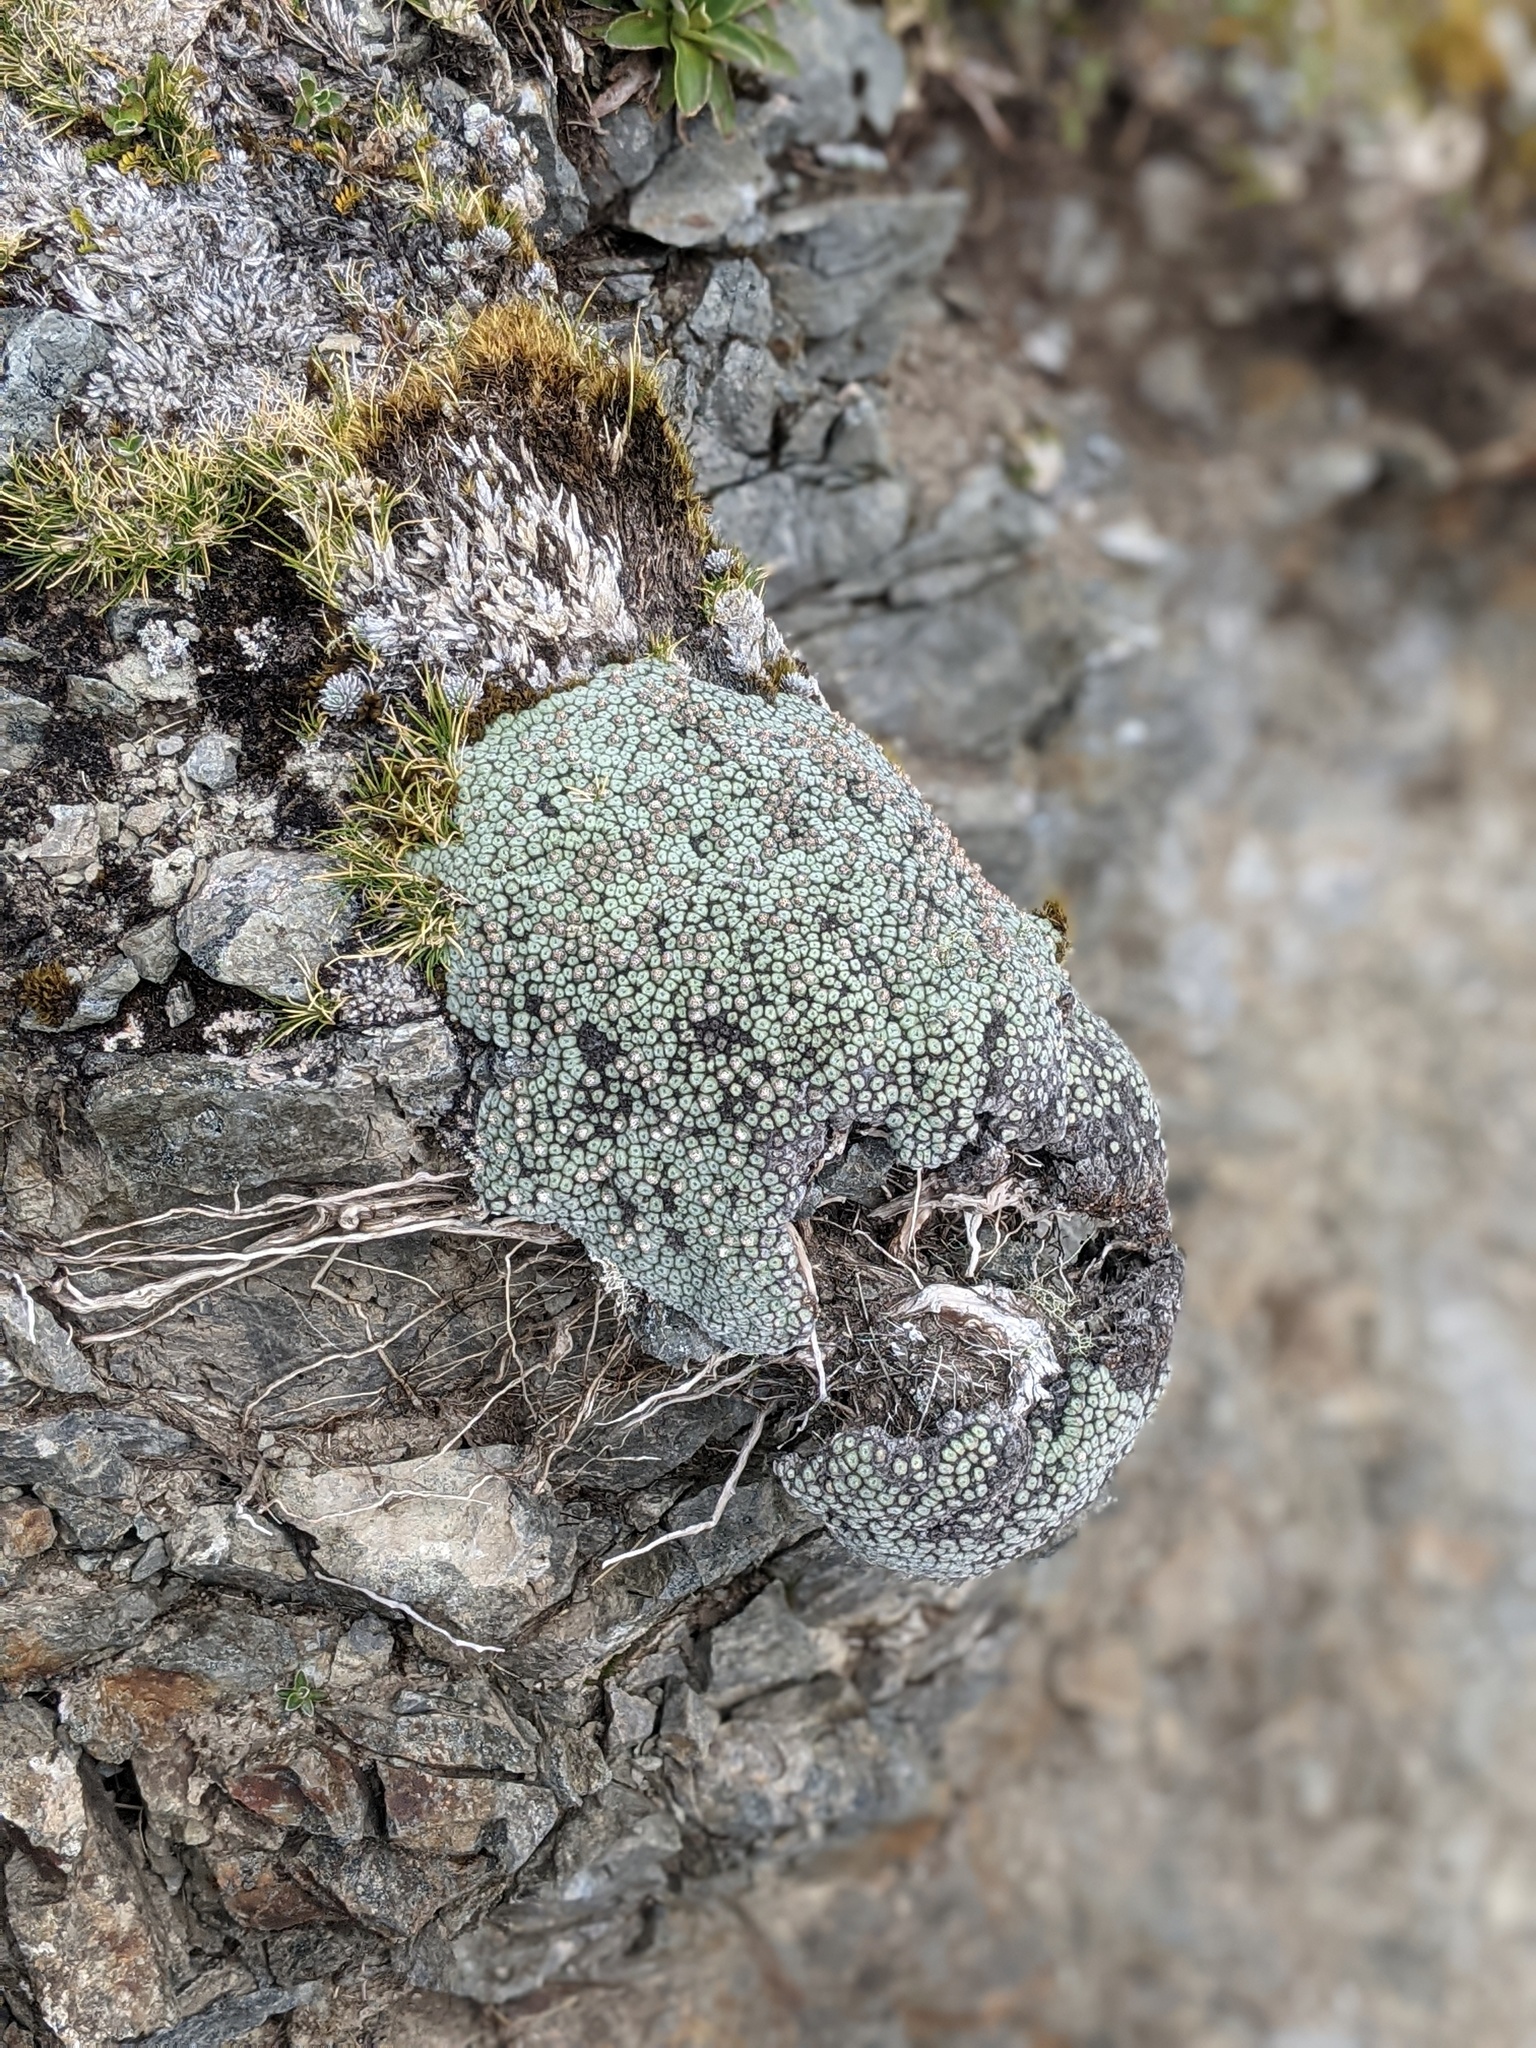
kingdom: Plantae
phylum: Tracheophyta
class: Magnoliopsida
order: Asterales
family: Asteraceae
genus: Raoulia
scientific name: Raoulia rubra
